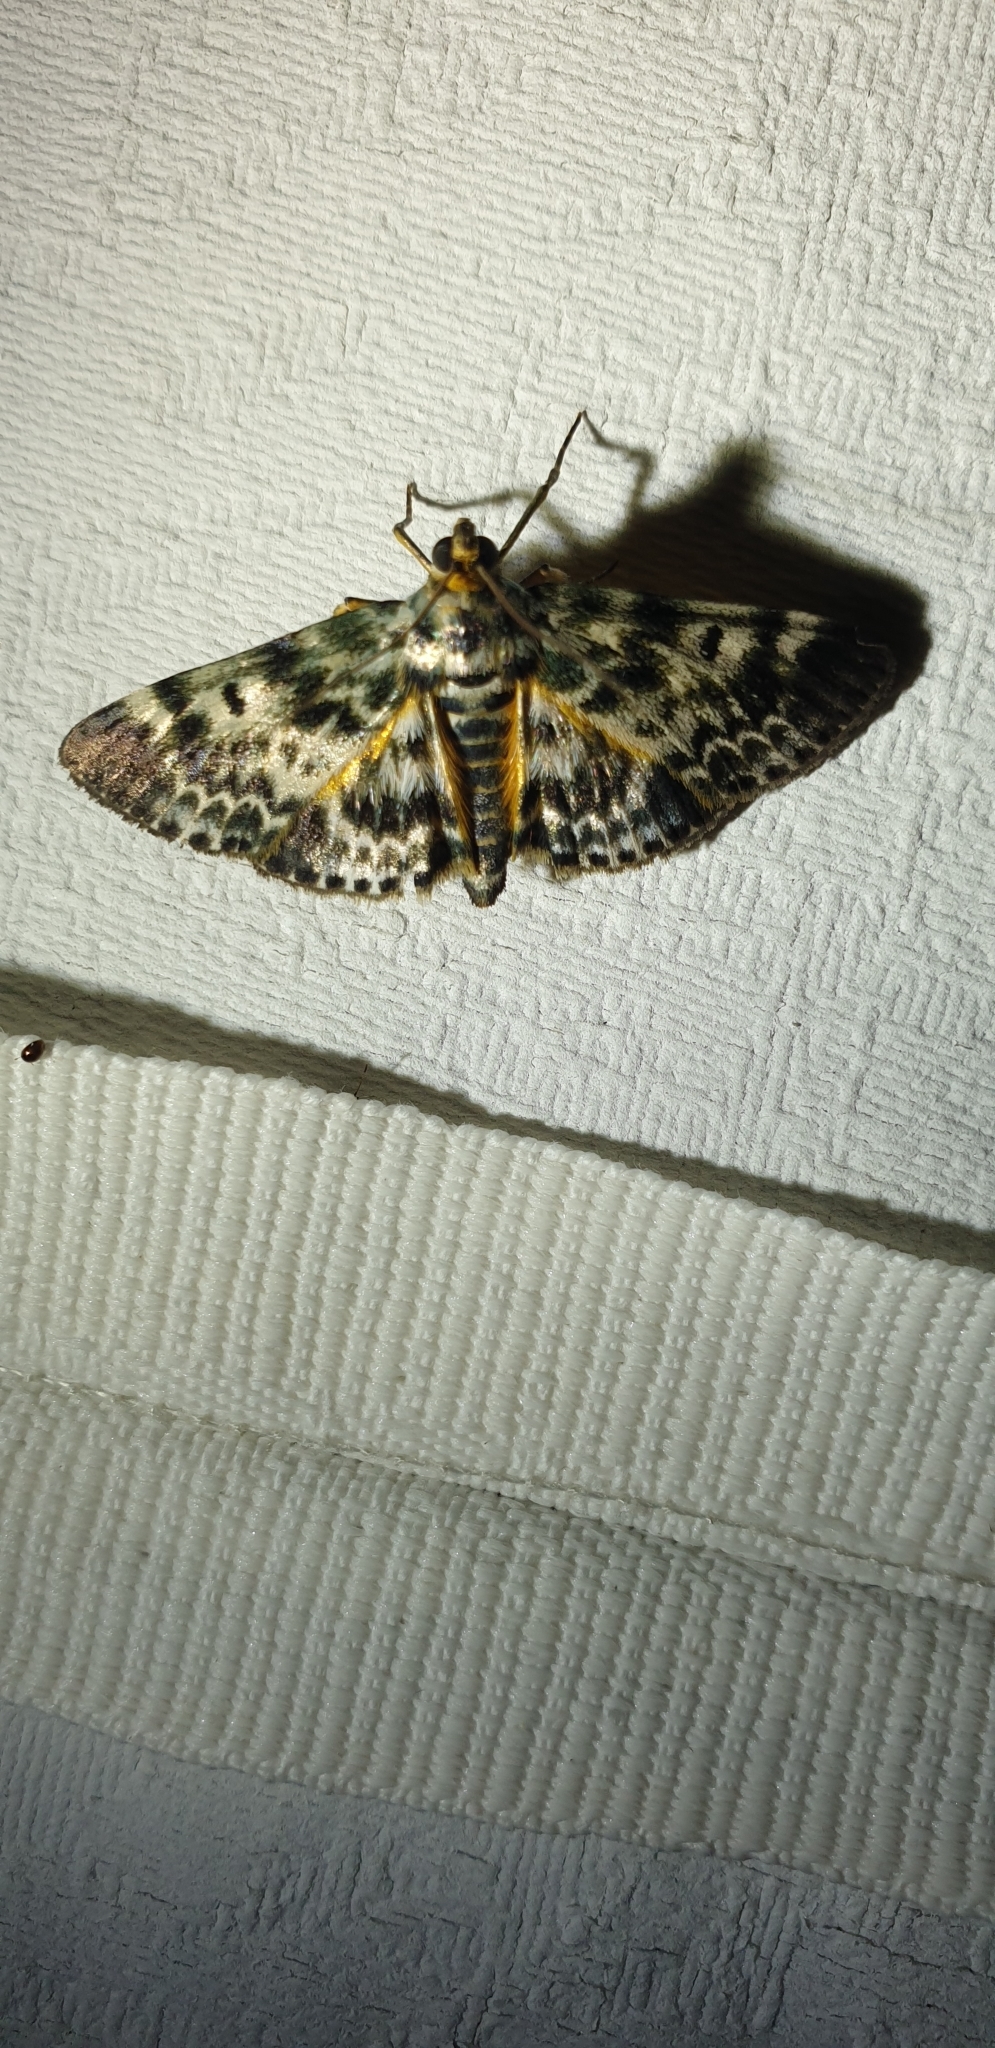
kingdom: Animalia
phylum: Arthropoda
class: Insecta
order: Lepidoptera
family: Pyralidae
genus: Cardamyla
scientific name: Cardamyla didymalis
